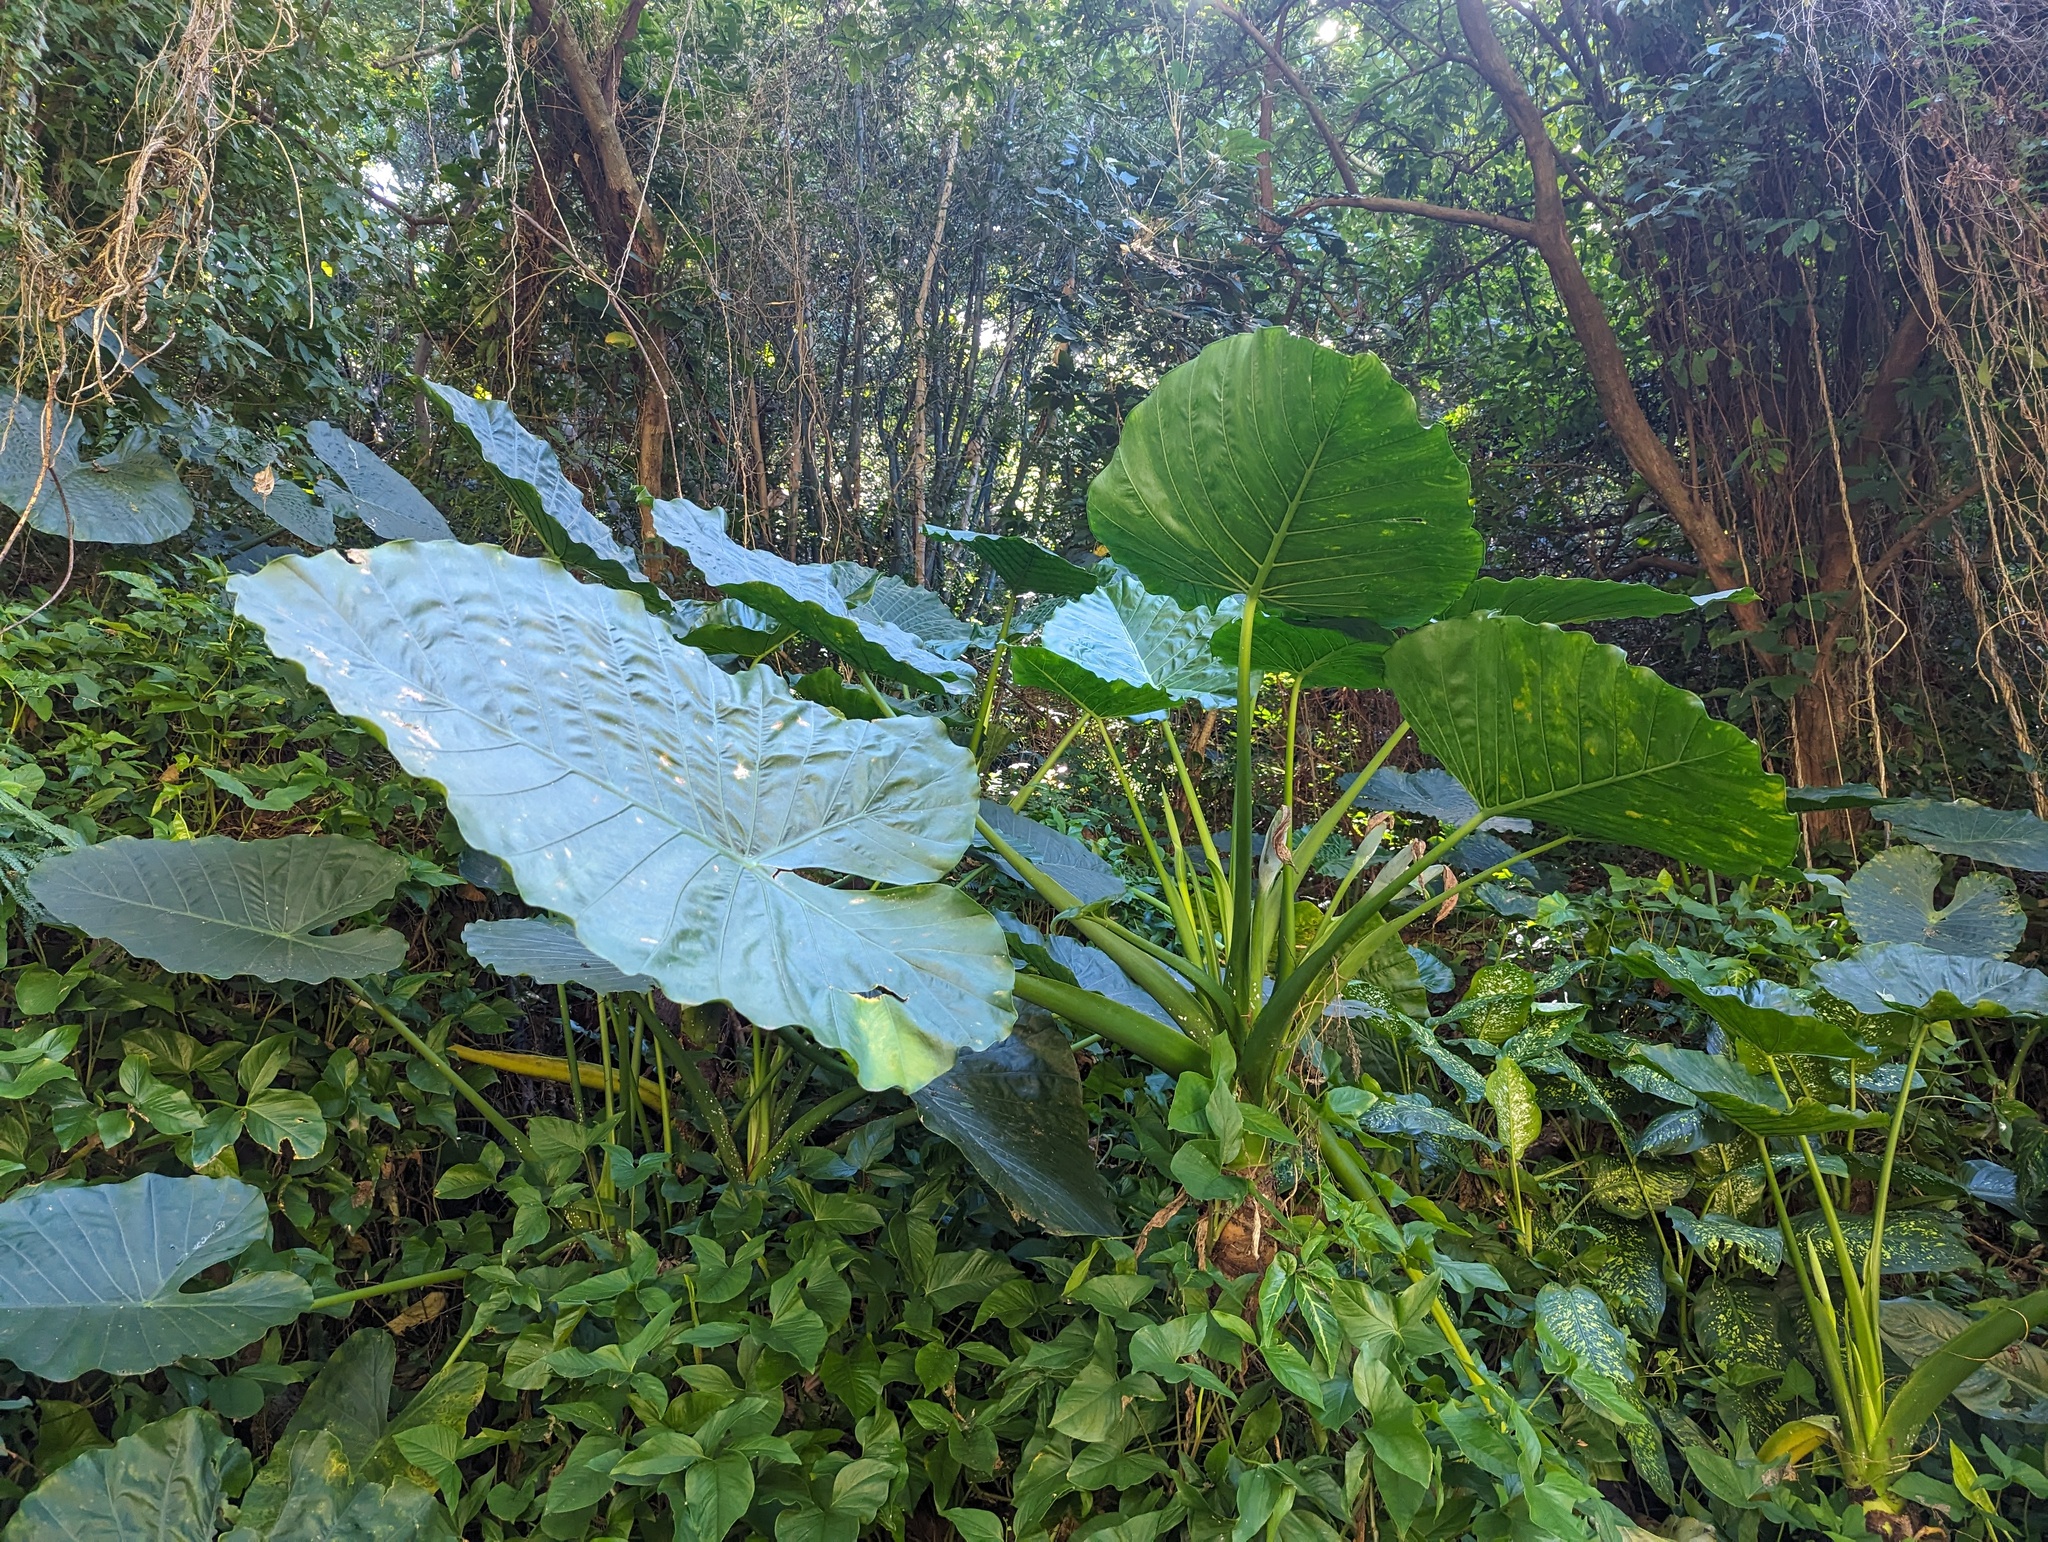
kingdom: Plantae
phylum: Tracheophyta
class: Liliopsida
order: Alismatales
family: Araceae
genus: Alocasia
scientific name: Alocasia odora
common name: Asian taro
